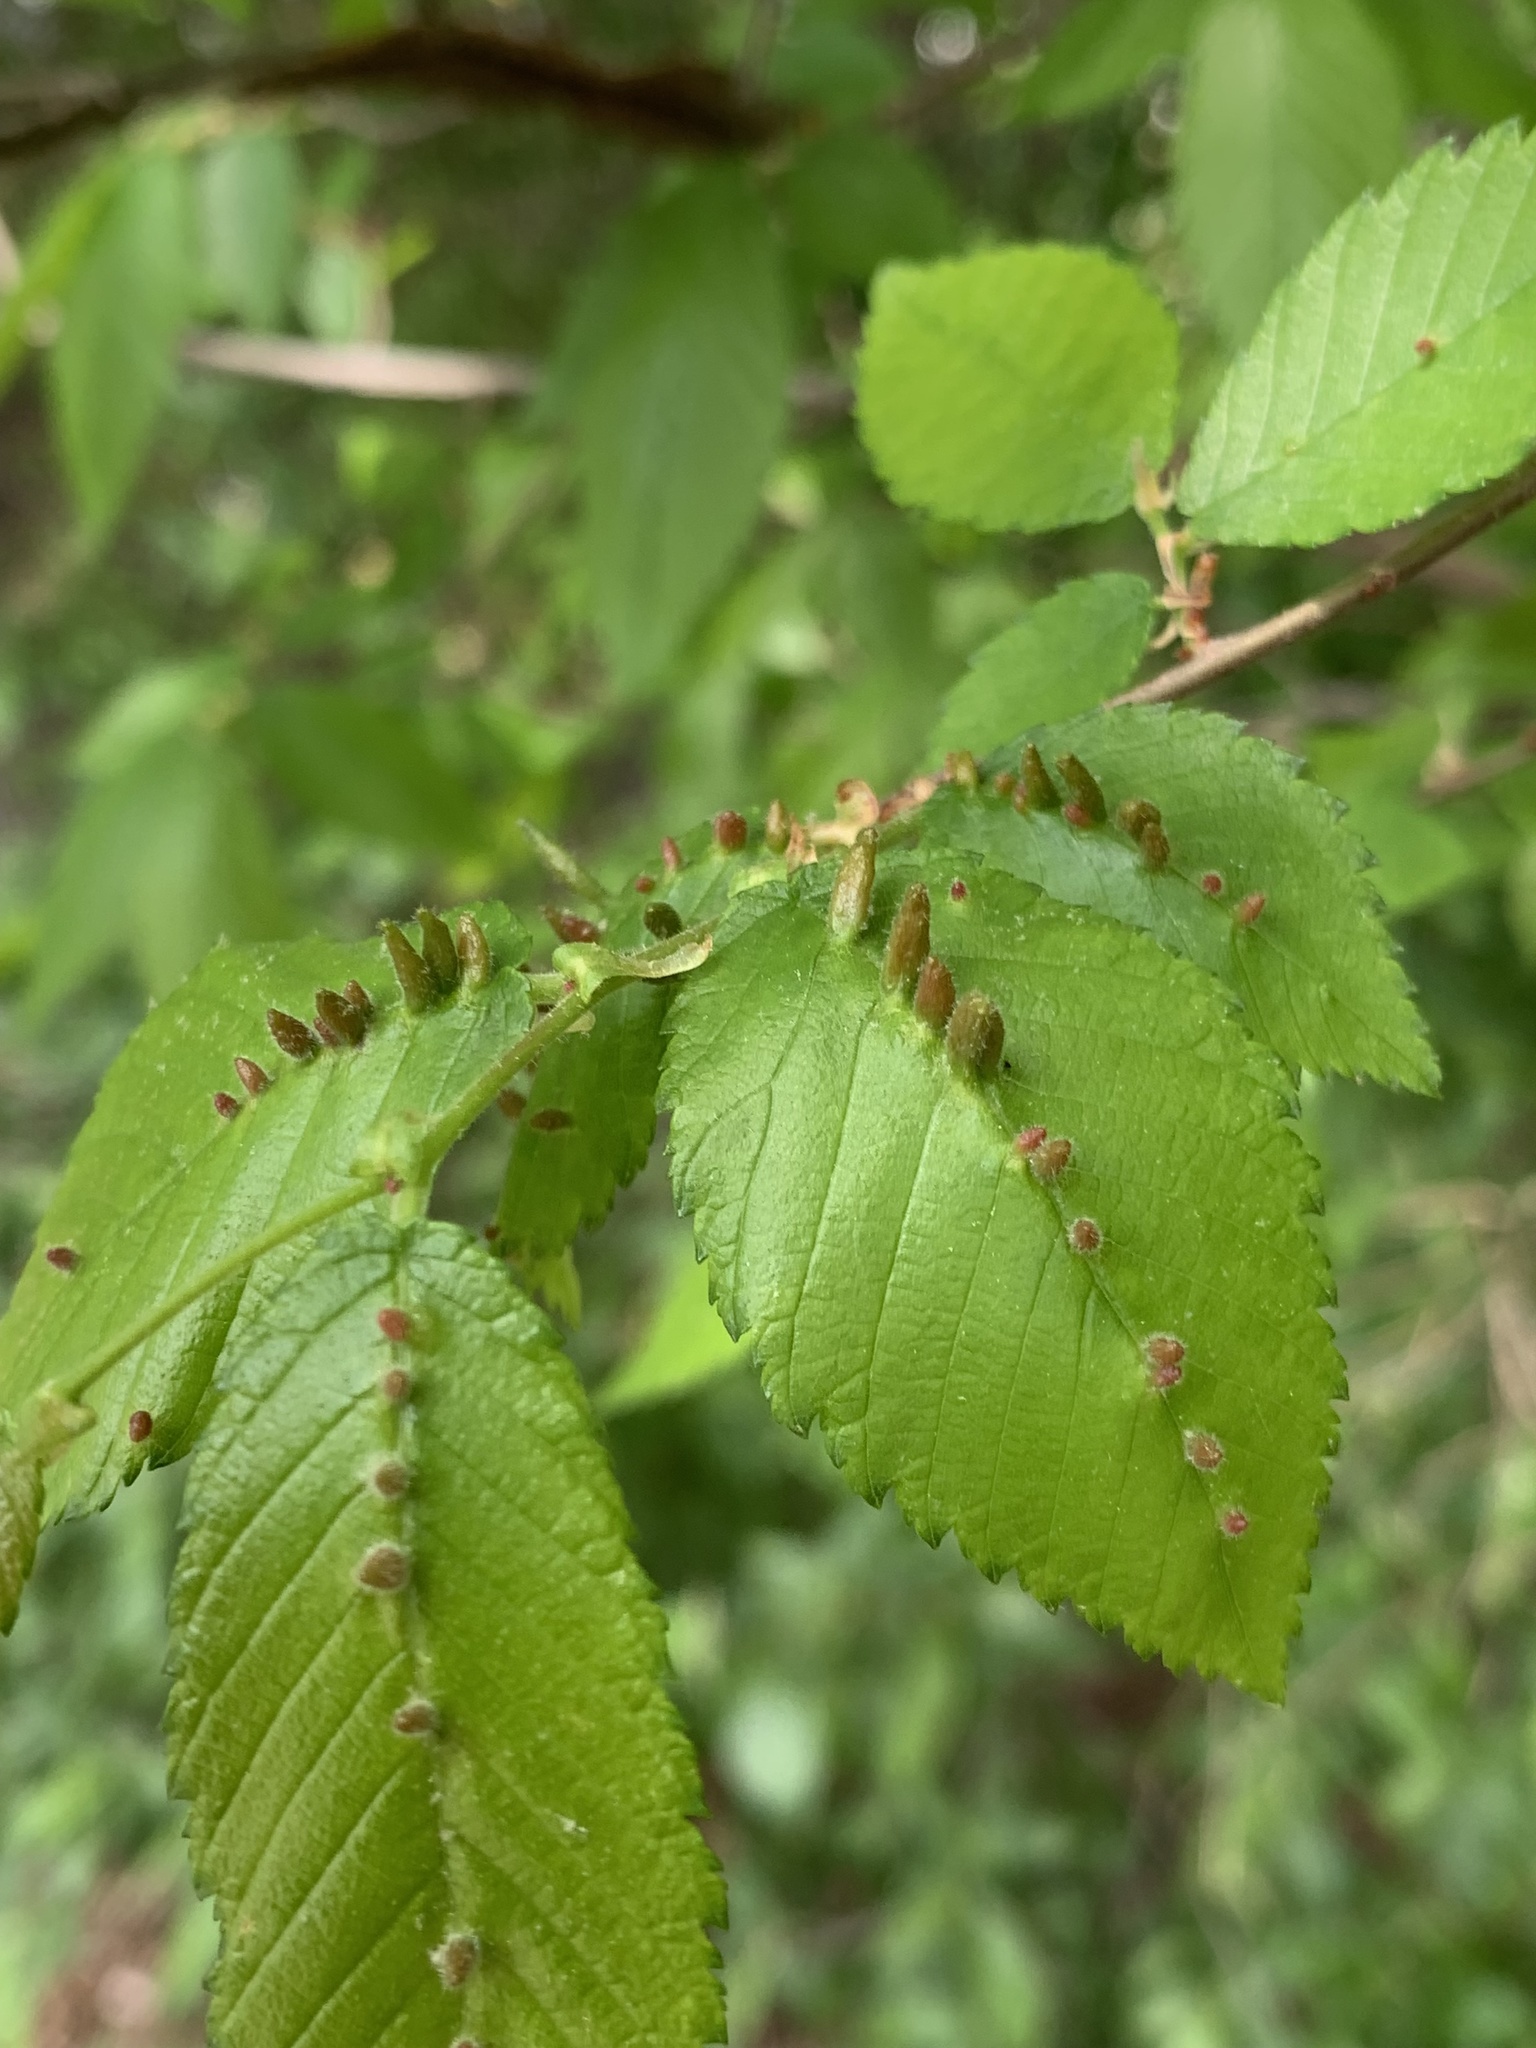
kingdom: Animalia
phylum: Arthropoda
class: Arachnida
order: Trombidiformes
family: Eriophyidae
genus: Aceria
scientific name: Aceria
